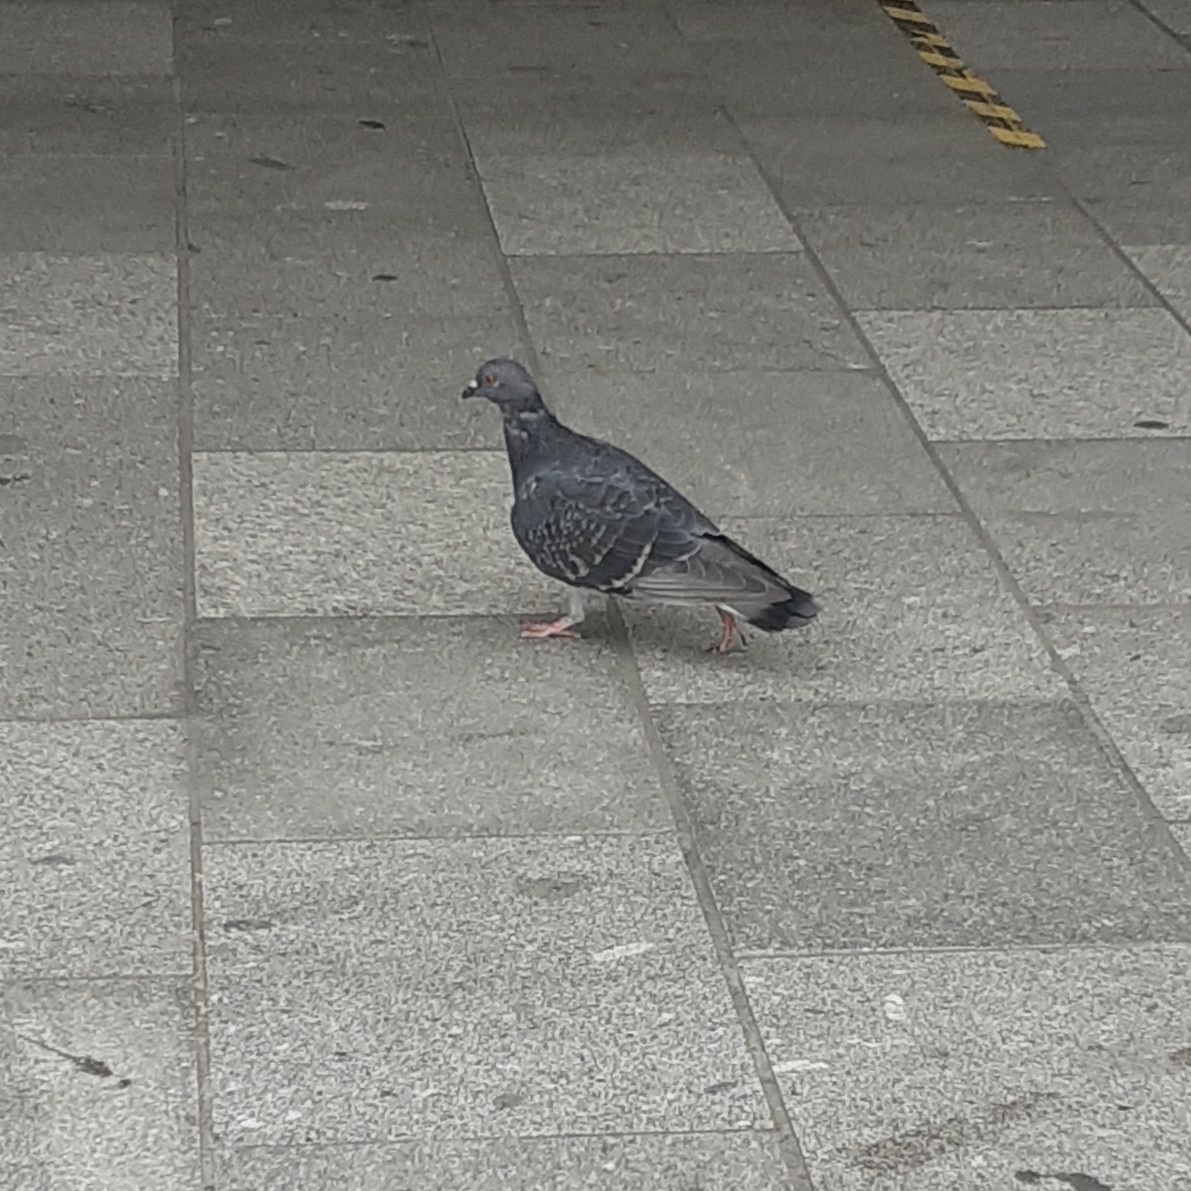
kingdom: Animalia
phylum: Chordata
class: Aves
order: Columbiformes
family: Columbidae
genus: Columba
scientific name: Columba livia
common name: Rock pigeon
